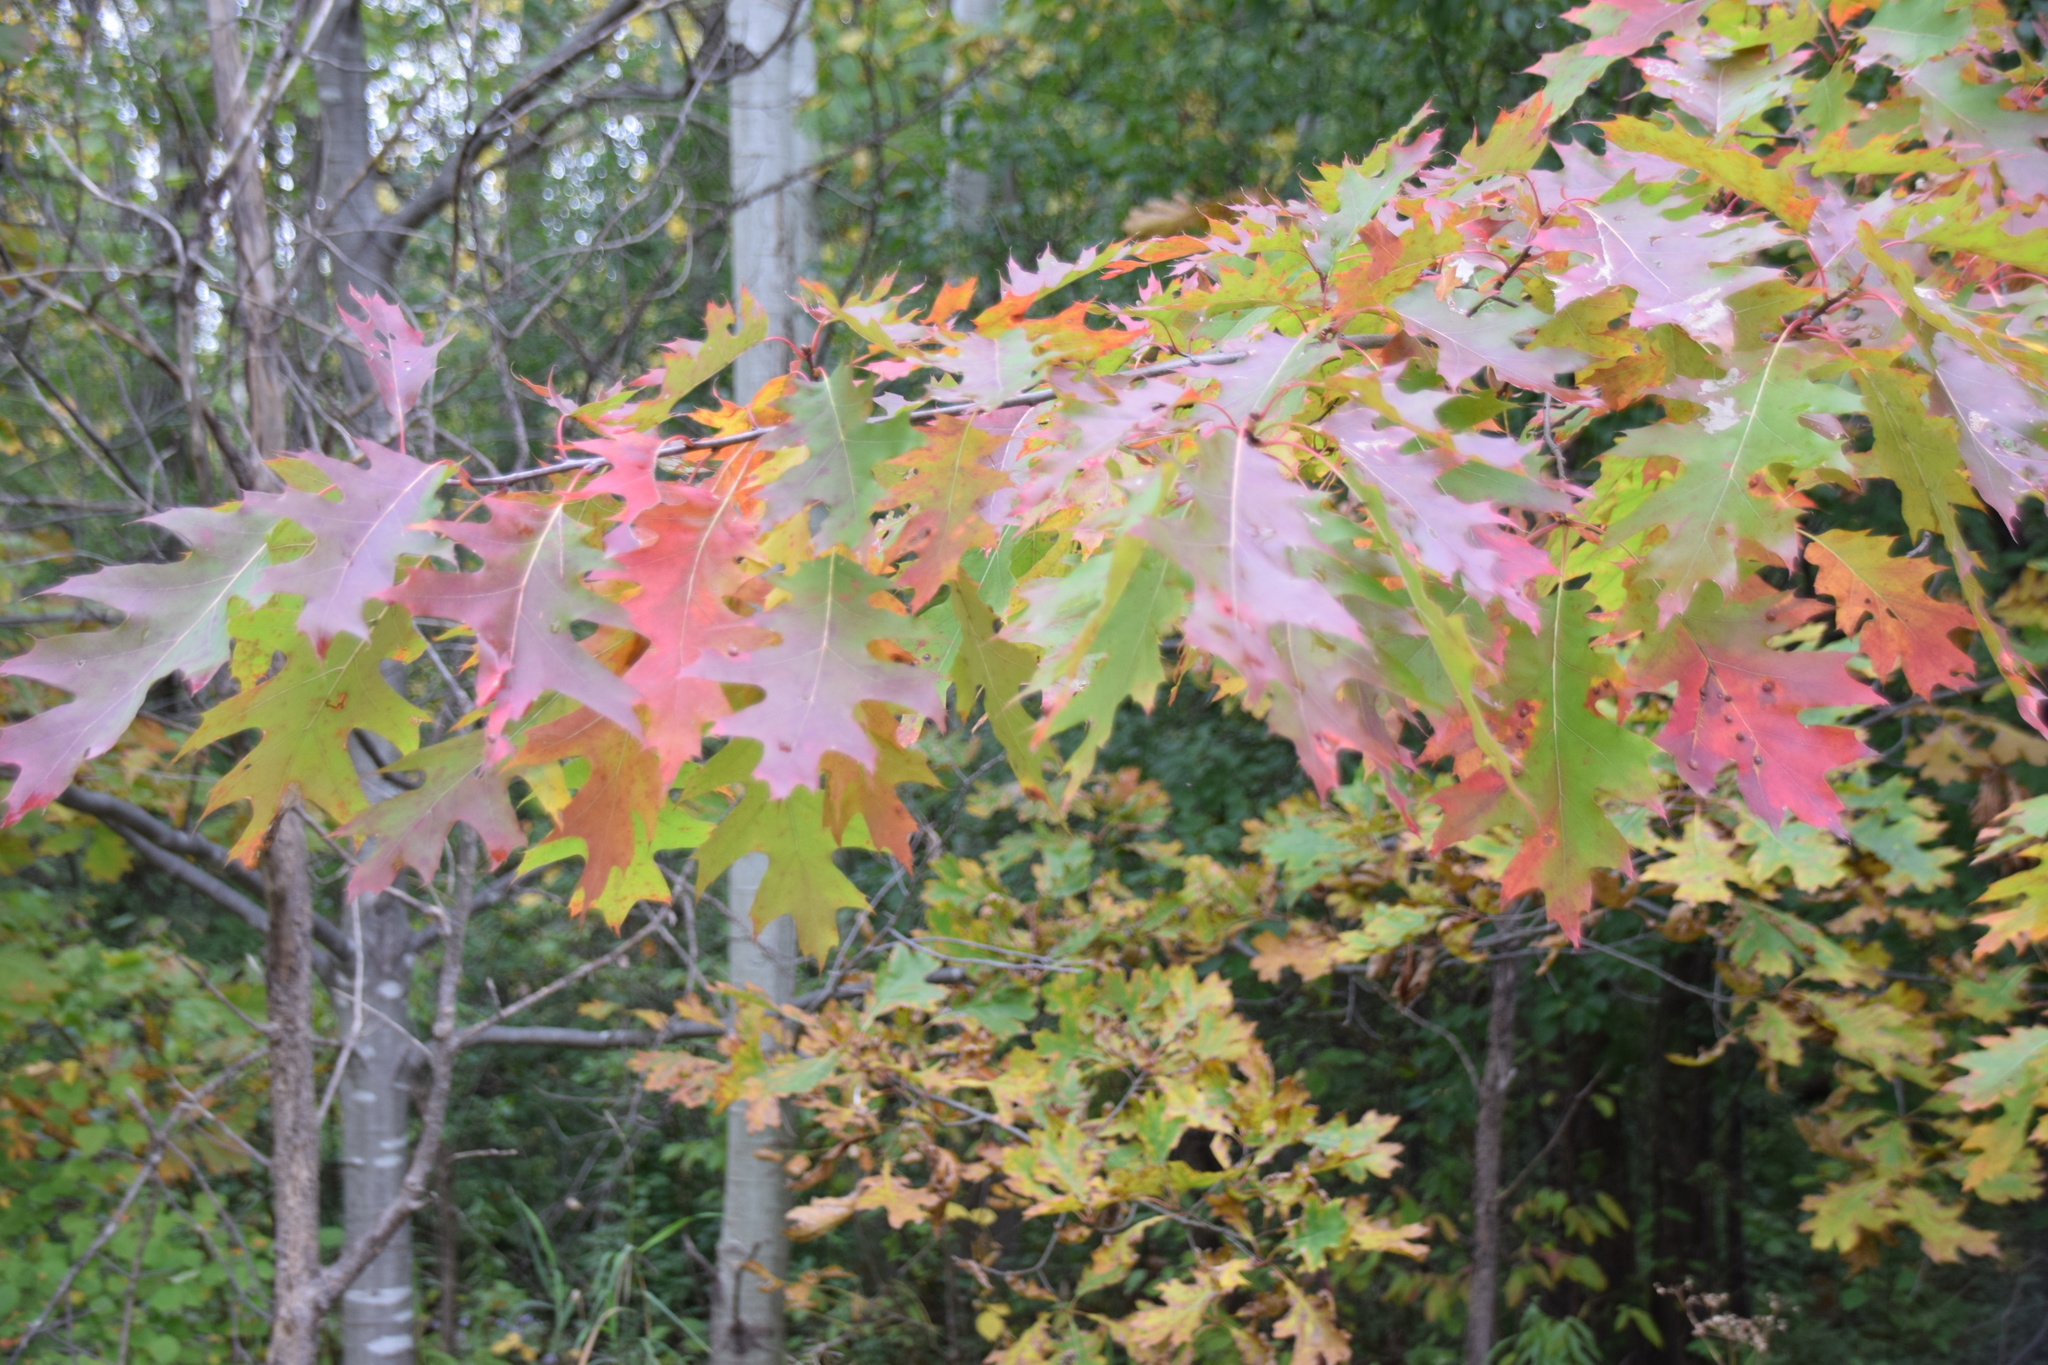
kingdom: Plantae
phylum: Tracheophyta
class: Magnoliopsida
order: Fagales
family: Fagaceae
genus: Quercus
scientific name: Quercus rubra
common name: Red oak
